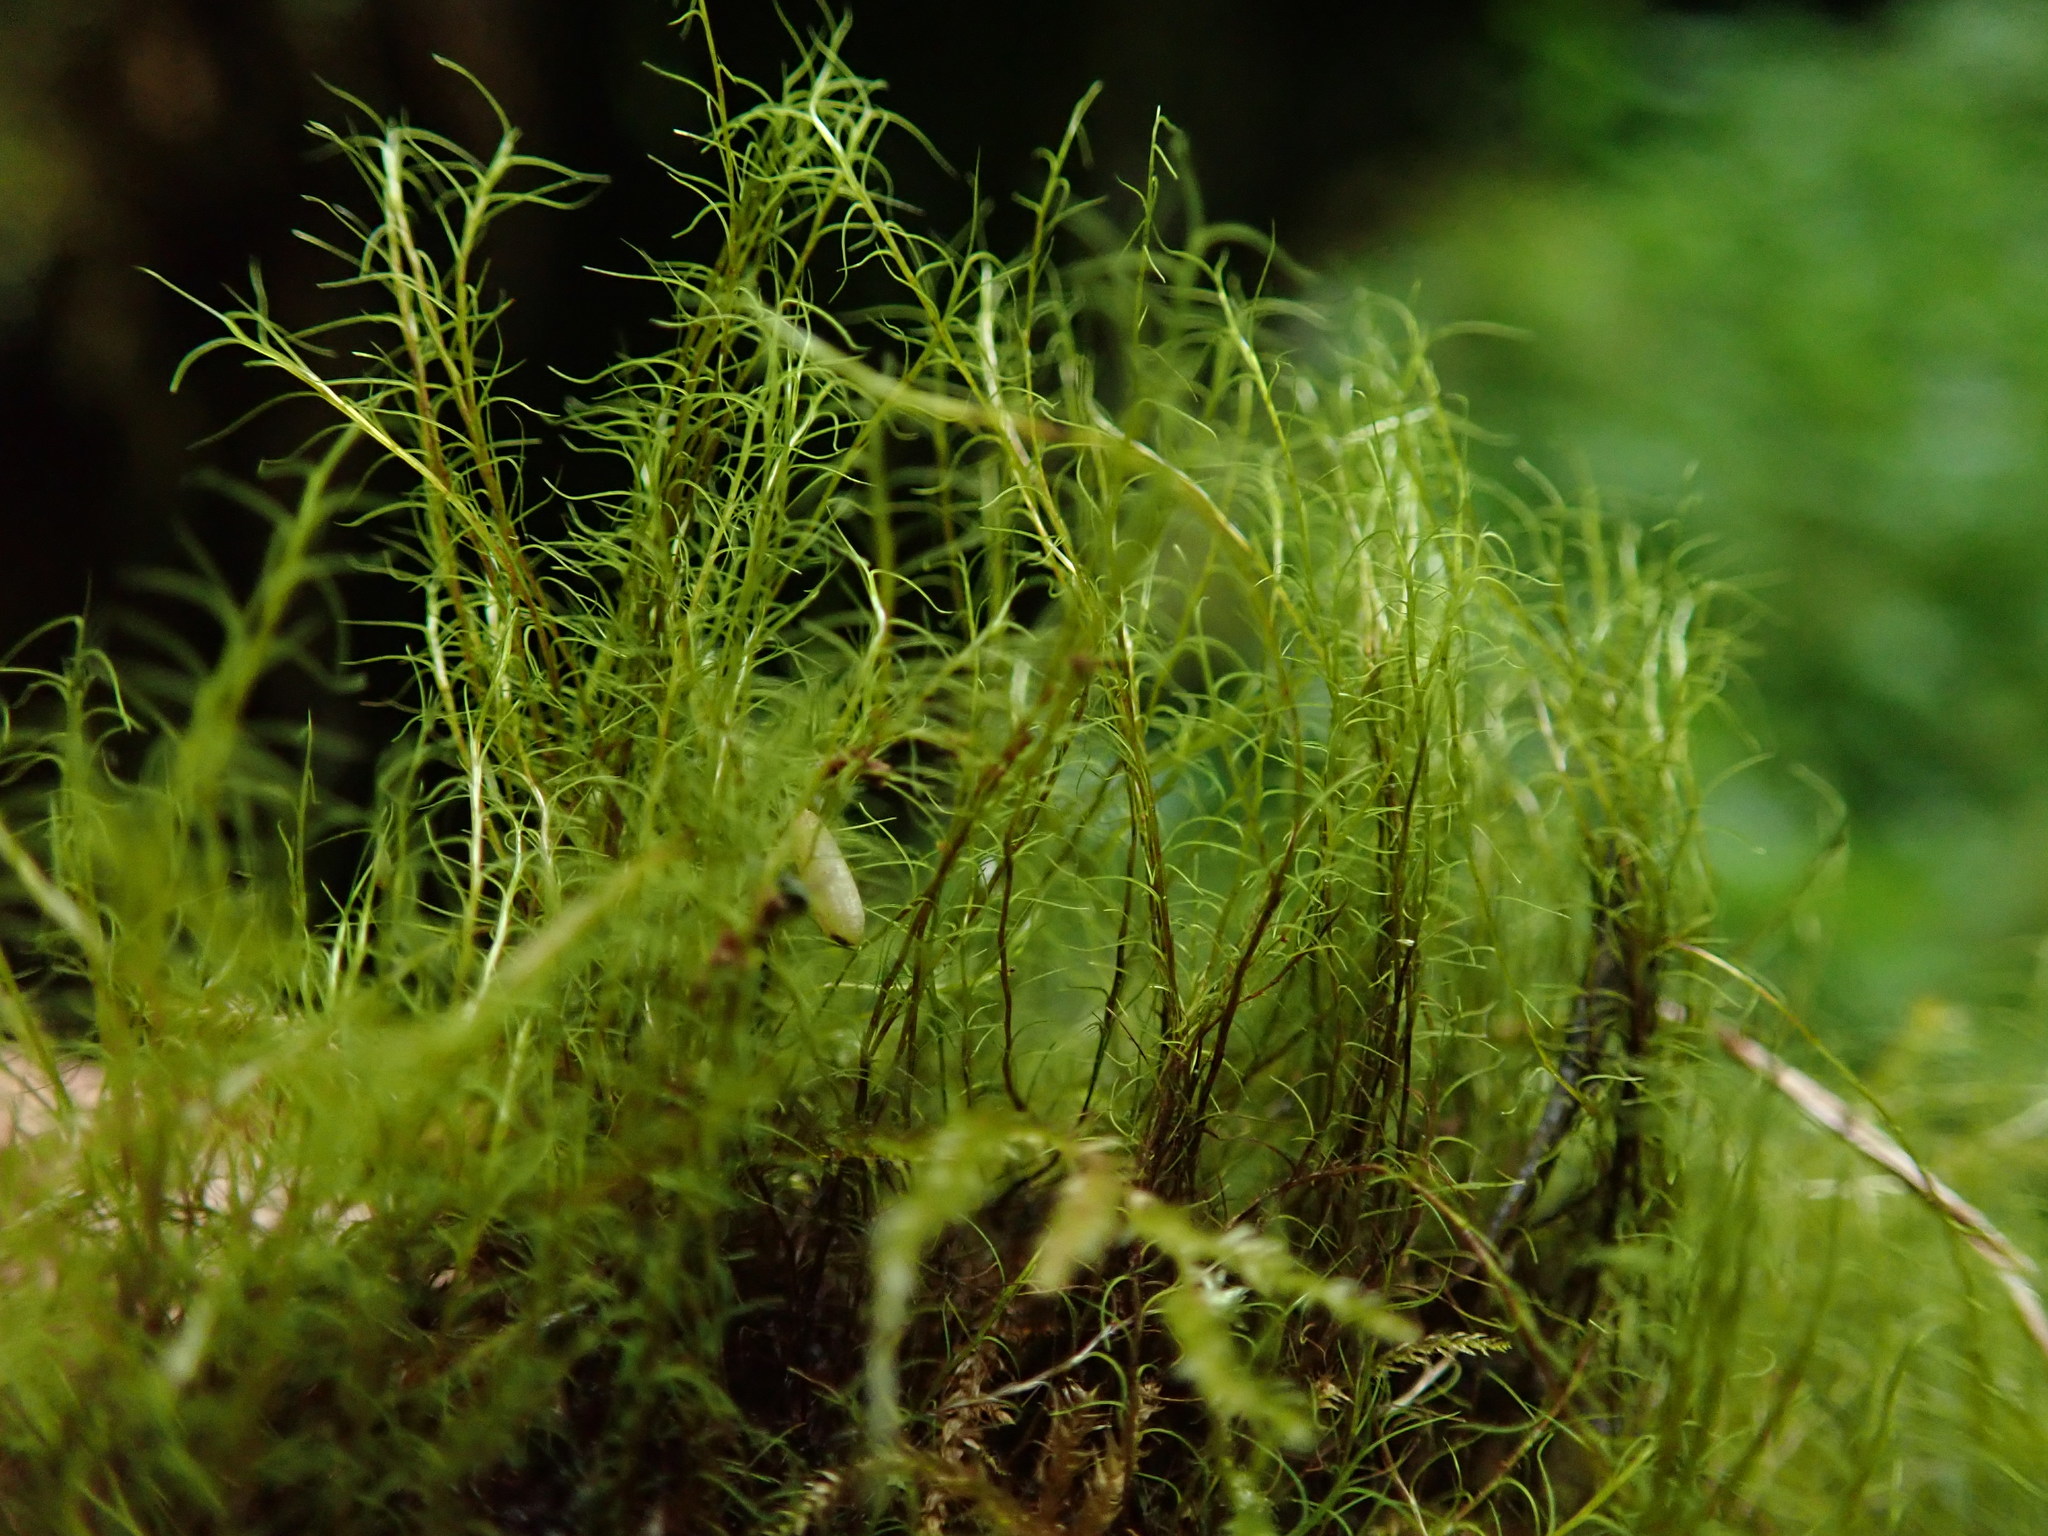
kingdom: Plantae
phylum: Bryophyta
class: Bryopsida
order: Scouleriales
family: Distichiaceae
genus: Distichium
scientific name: Distichium capillaceum
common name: Erect-fruited iris moss
